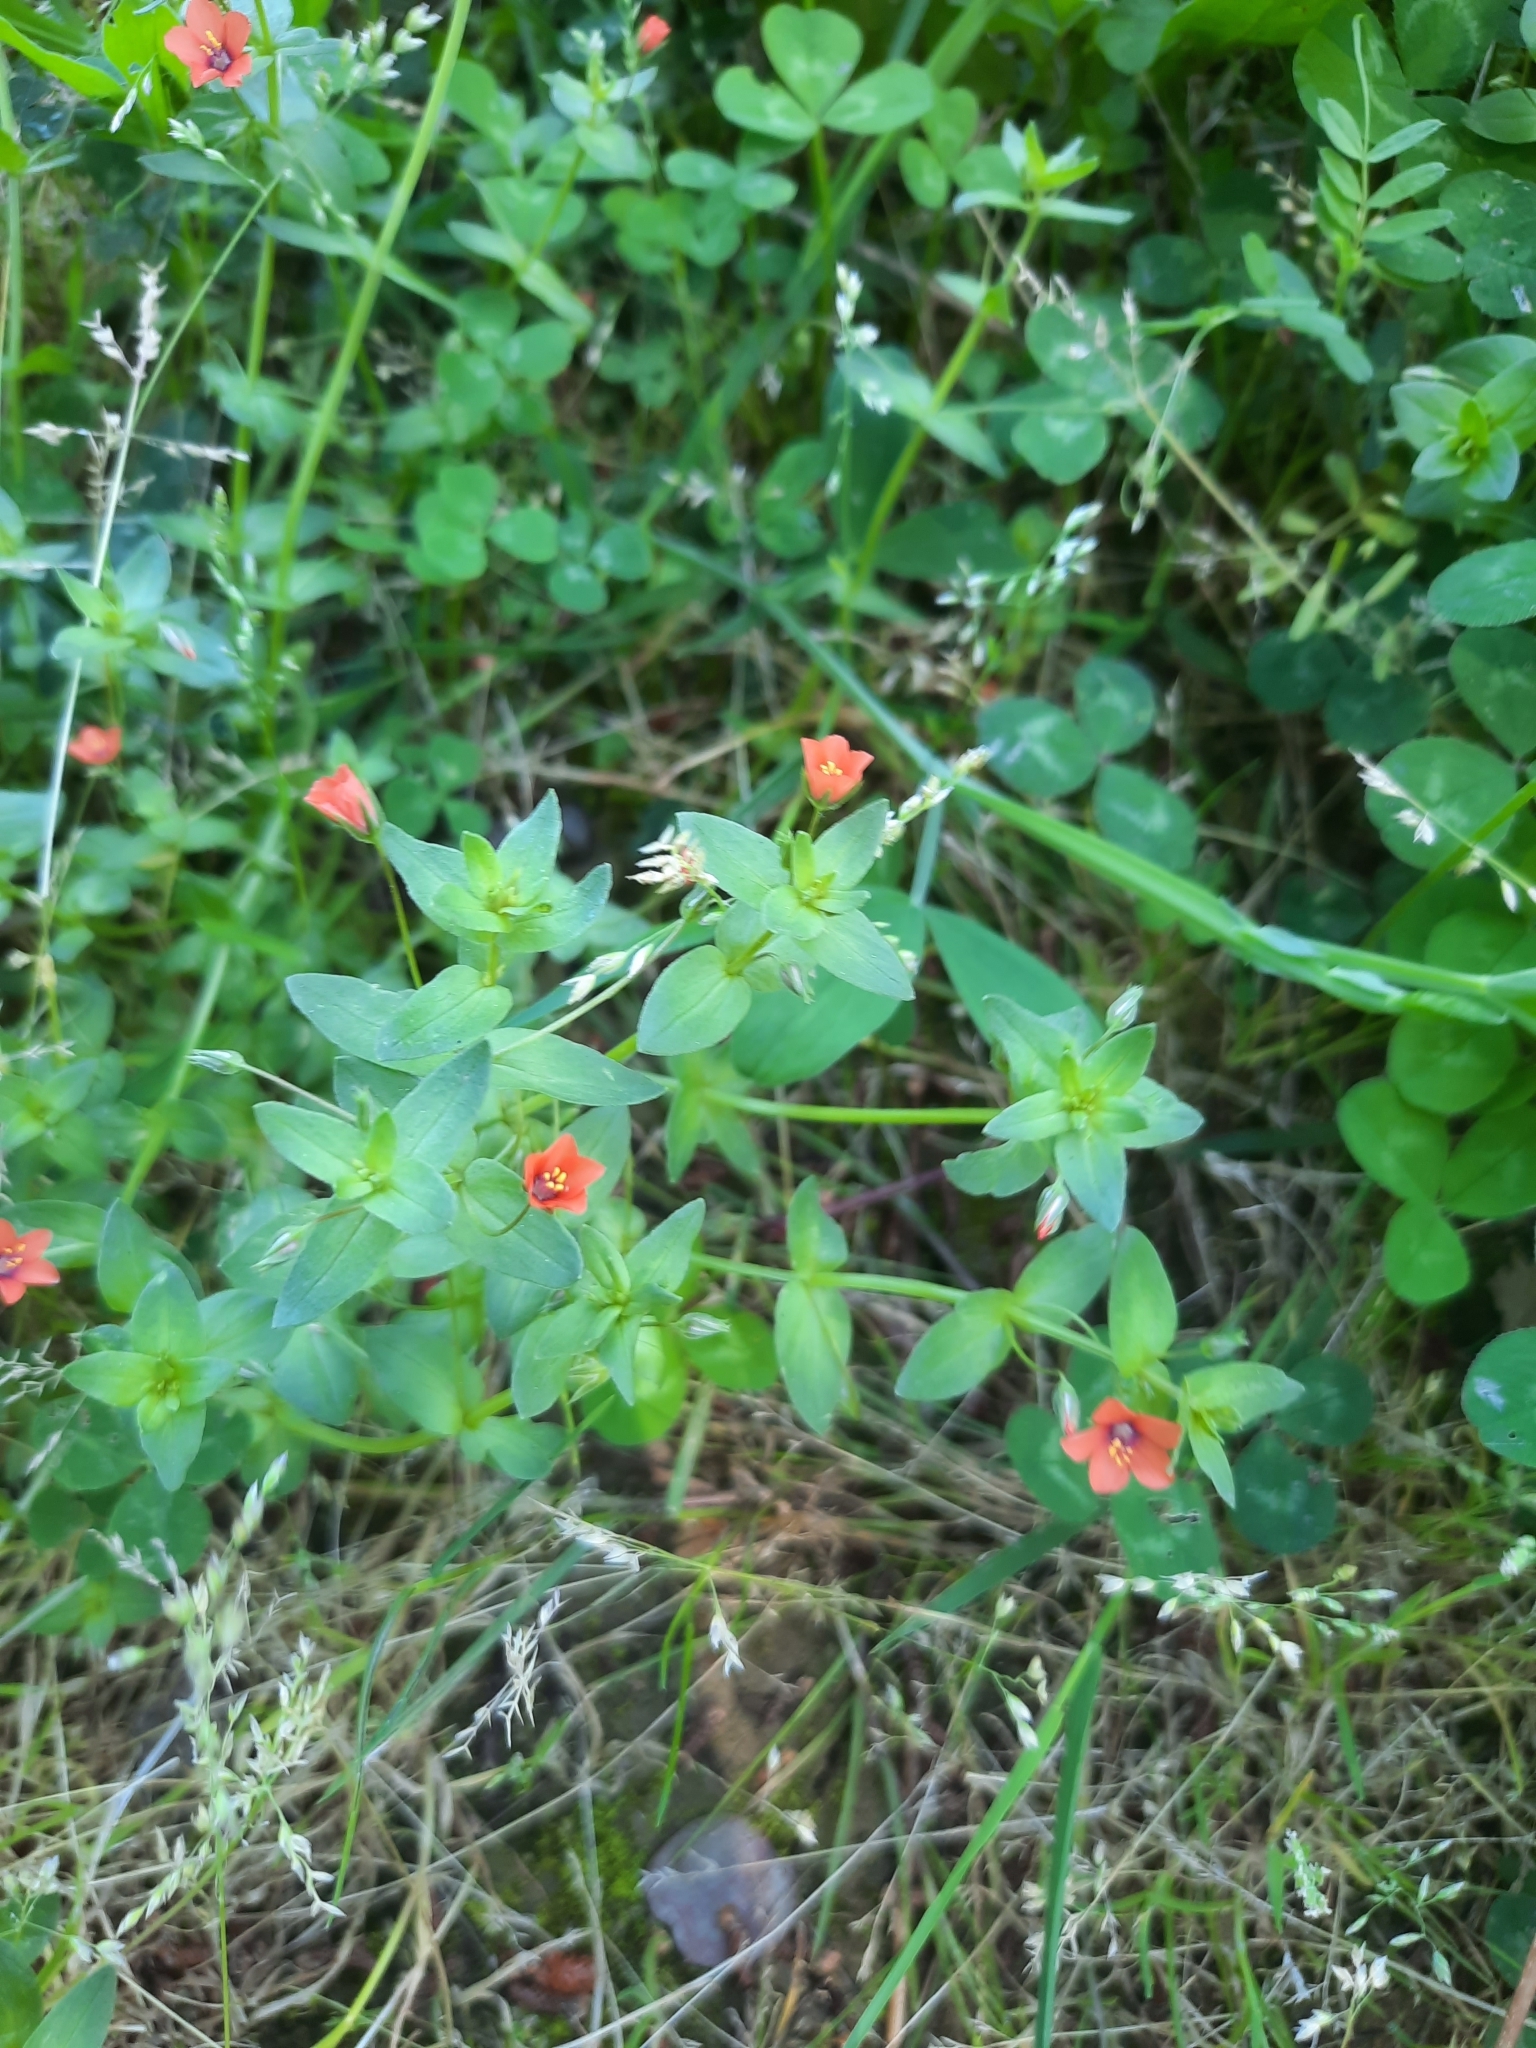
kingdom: Plantae
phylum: Tracheophyta
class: Magnoliopsida
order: Ericales
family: Primulaceae
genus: Lysimachia
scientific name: Lysimachia arvensis
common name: Scarlet pimpernel
